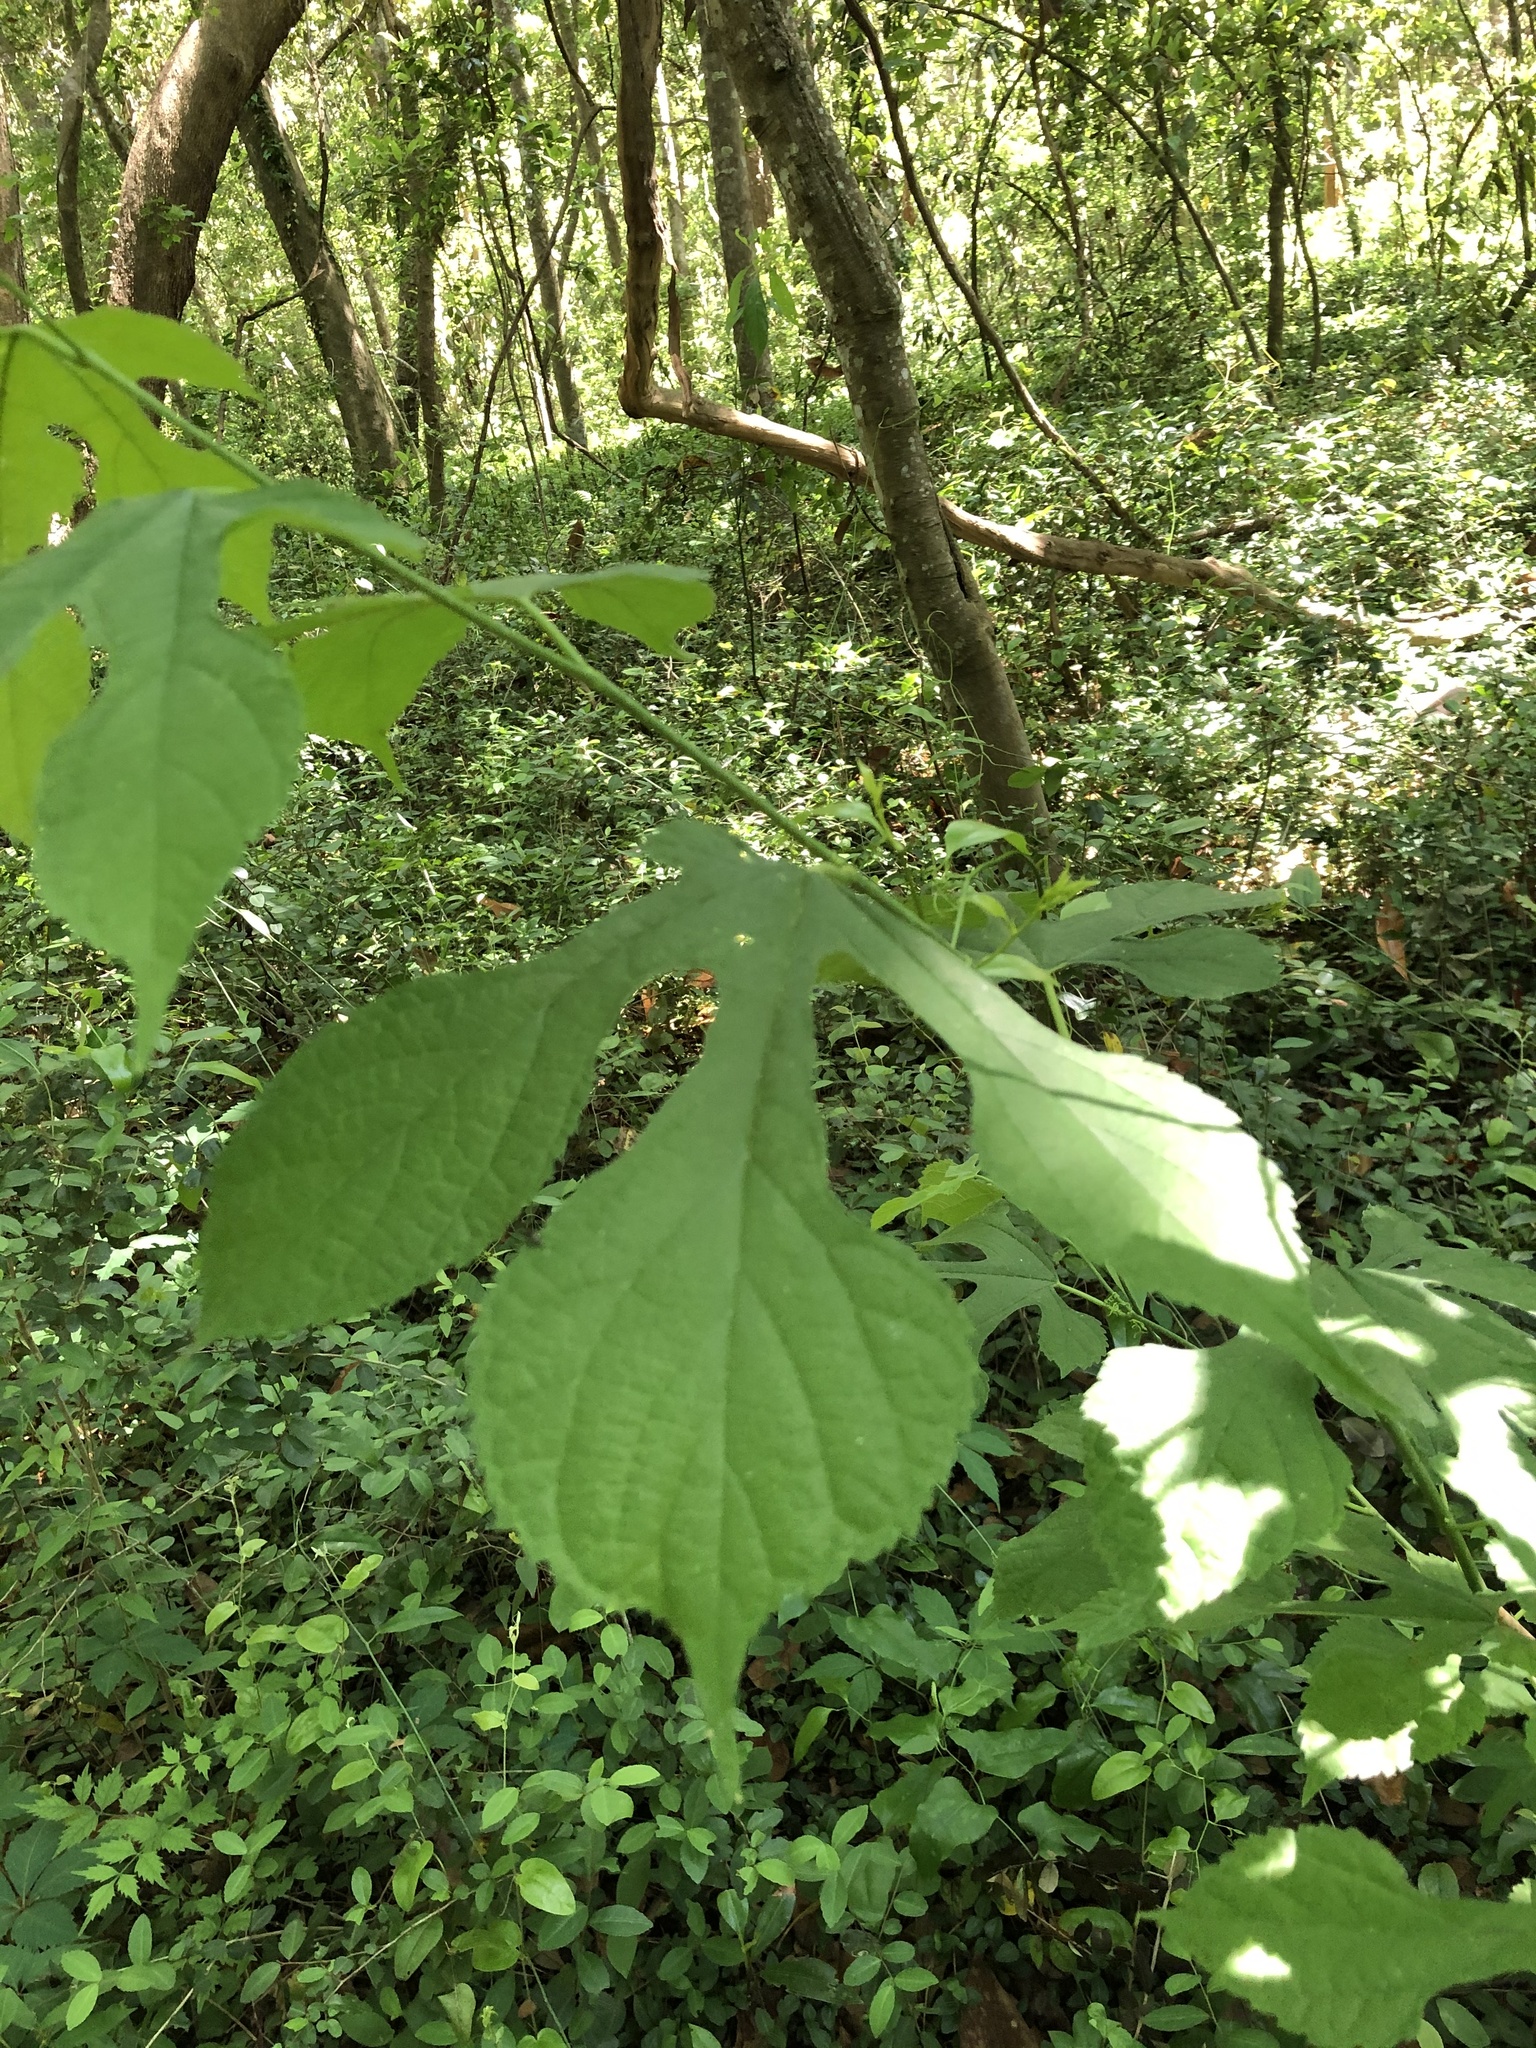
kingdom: Plantae
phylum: Tracheophyta
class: Magnoliopsida
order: Rosales
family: Moraceae
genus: Morus
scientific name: Morus rubra
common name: Red mulberry
